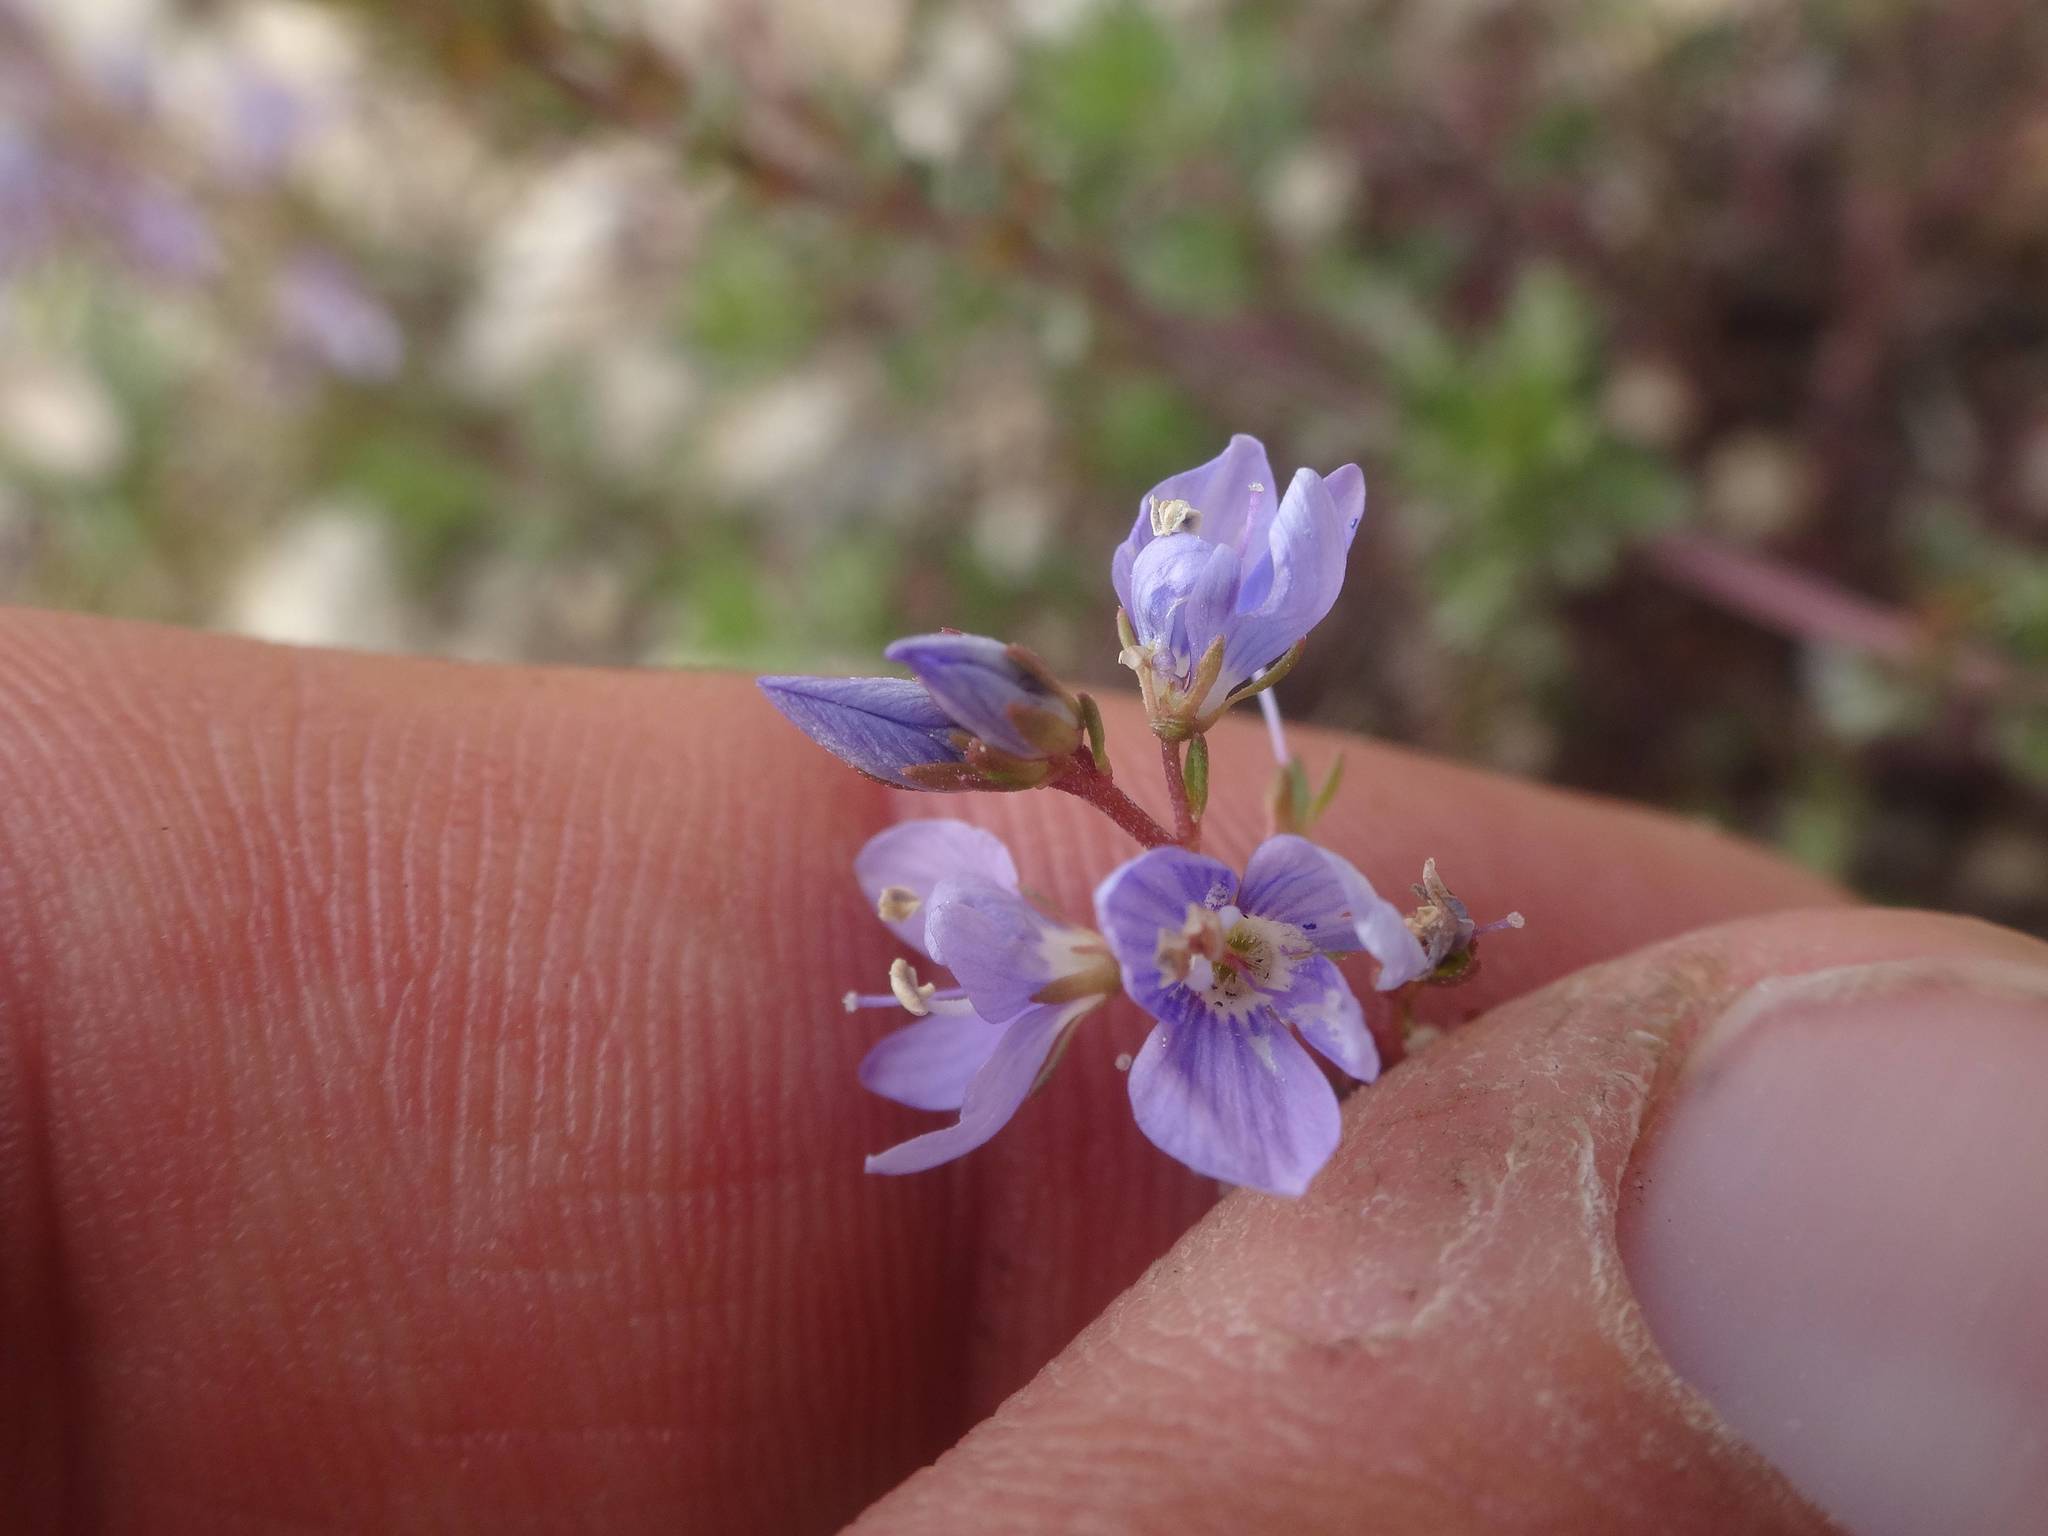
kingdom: Plantae
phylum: Tracheophyta
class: Magnoliopsida
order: Lamiales
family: Plantaginaceae
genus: Veronica
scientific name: Veronica multifida
